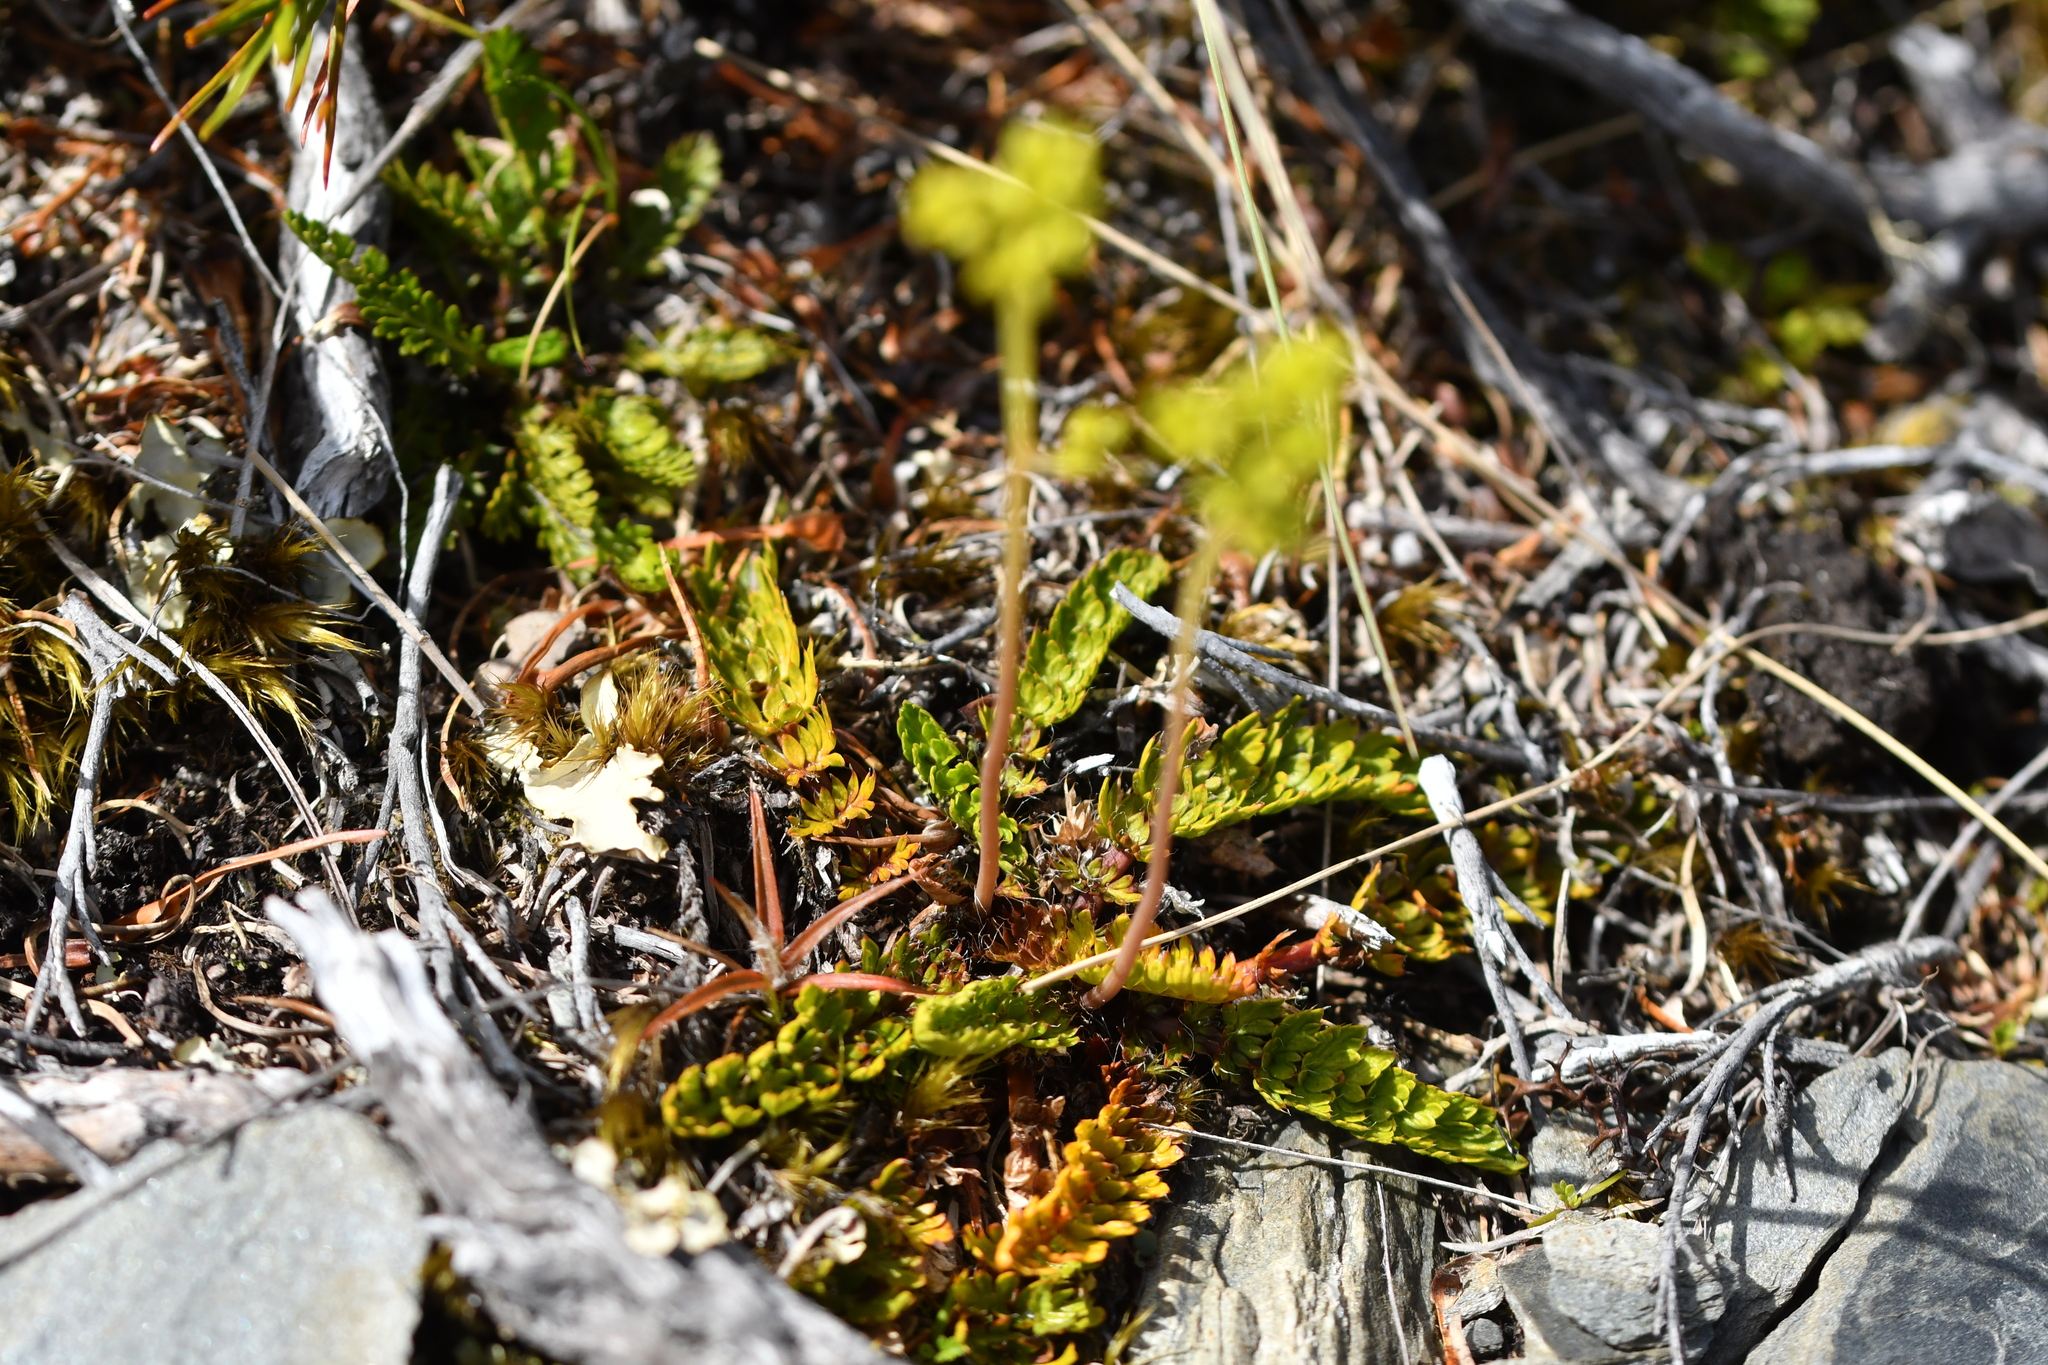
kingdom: Plantae
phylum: Tracheophyta
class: Magnoliopsida
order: Apiales
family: Apiaceae
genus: Anisotome
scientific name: Anisotome flexuosa
